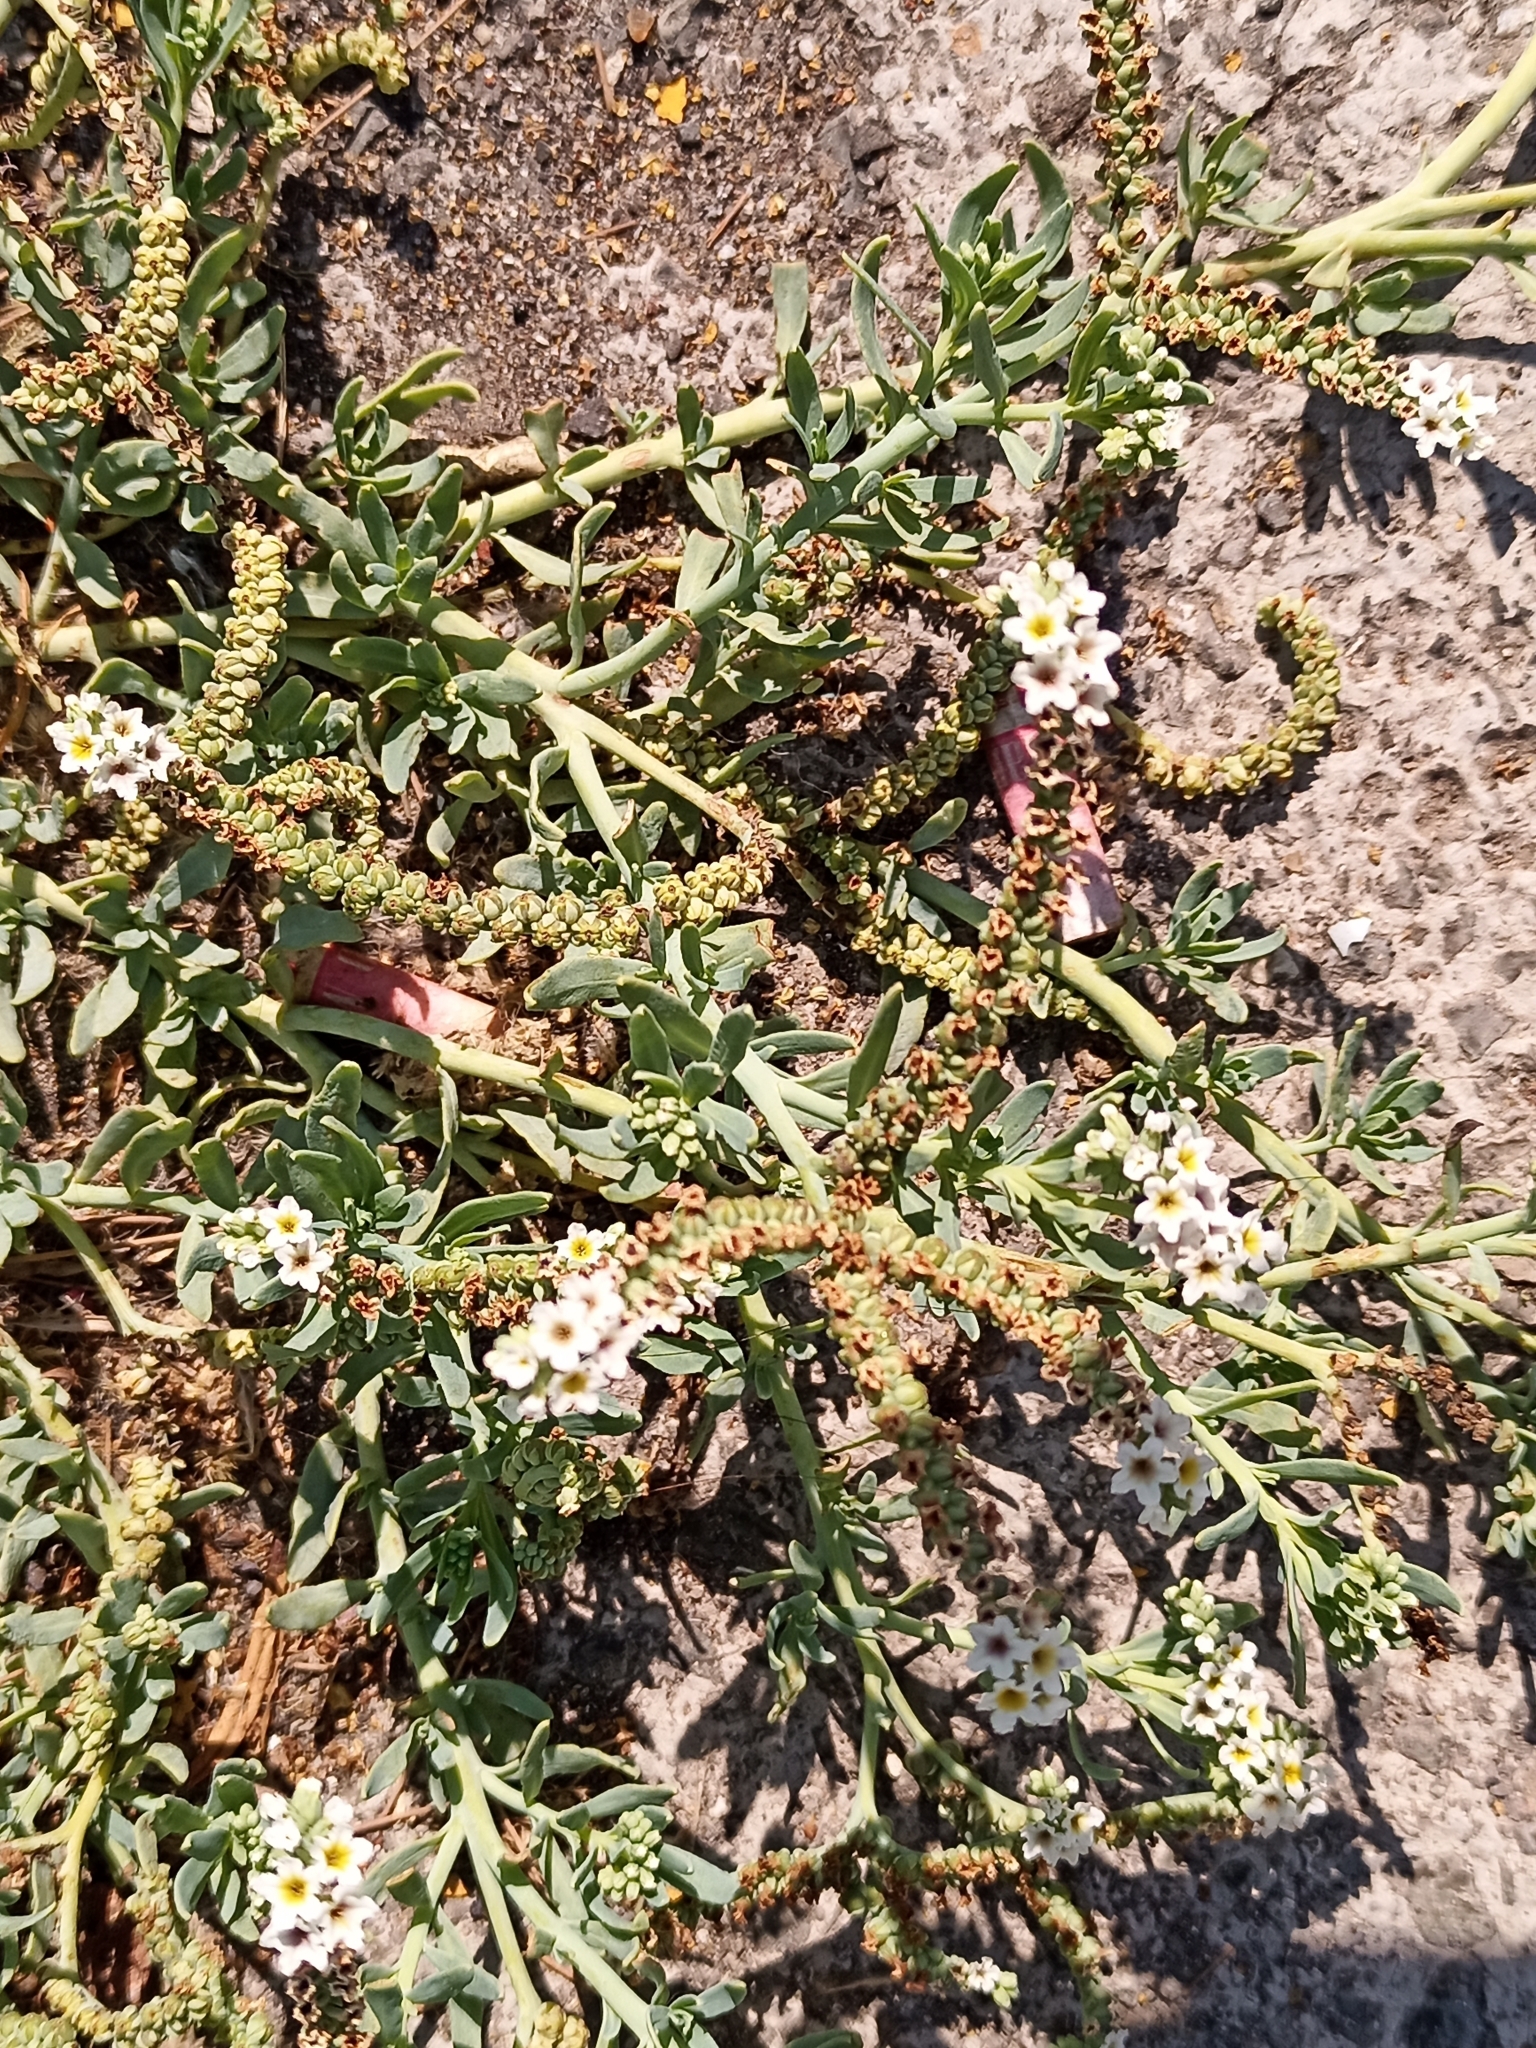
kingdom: Plantae
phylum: Tracheophyta
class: Magnoliopsida
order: Boraginales
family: Heliotropiaceae
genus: Heliotropium
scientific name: Heliotropium curassavicum
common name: Seaside heliotrope
